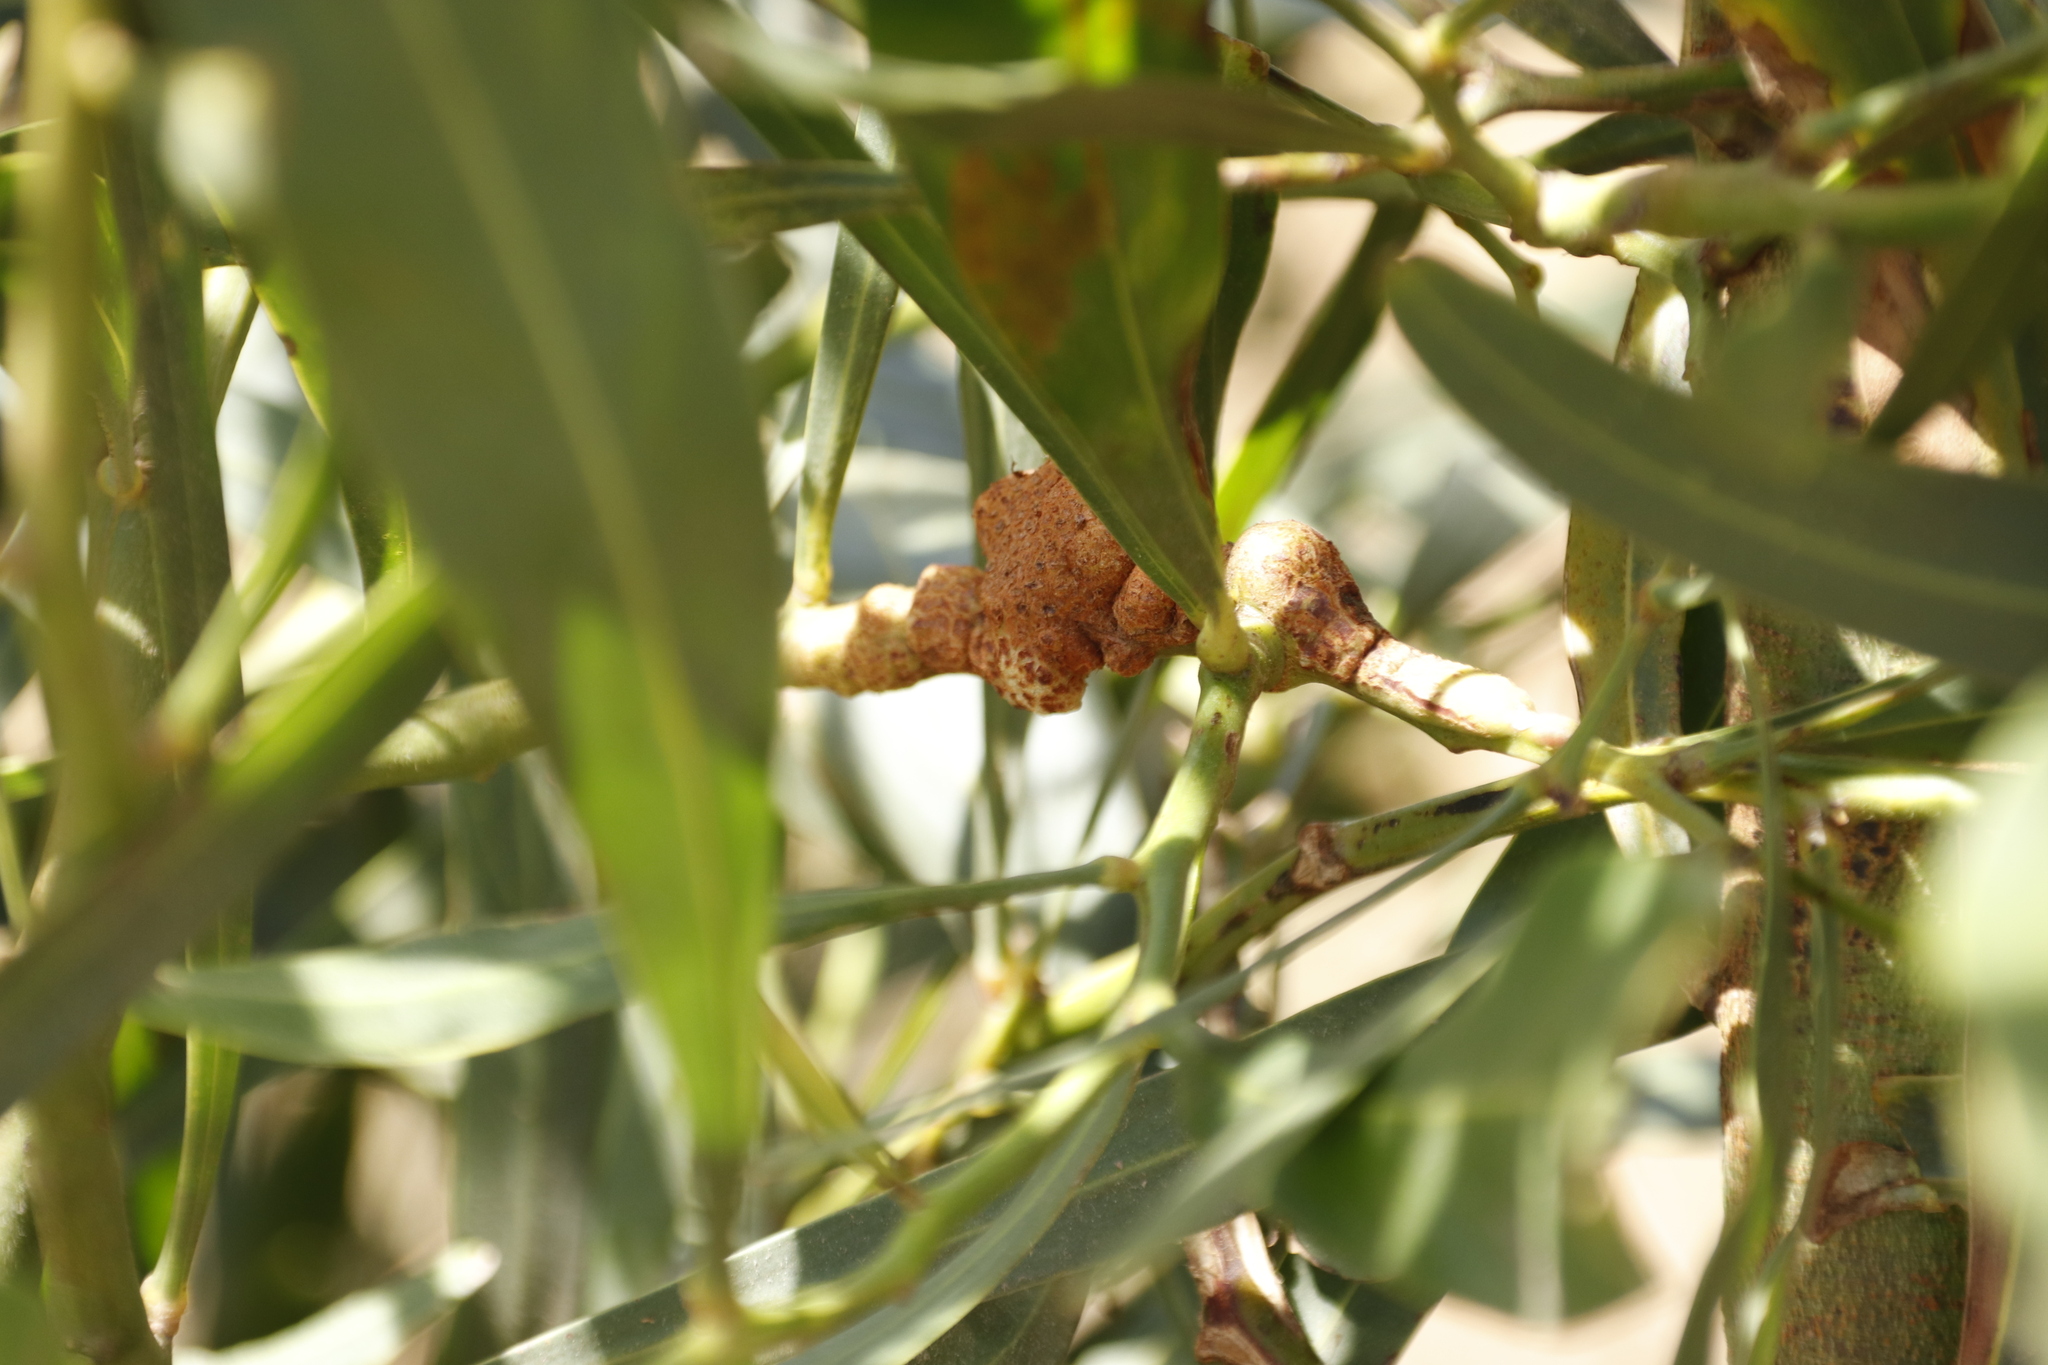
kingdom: Fungi
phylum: Basidiomycota
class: Pucciniomycetes
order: Pucciniales
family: Uromycladiaceae
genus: Uromycladium
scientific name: Uromycladium morrisii
